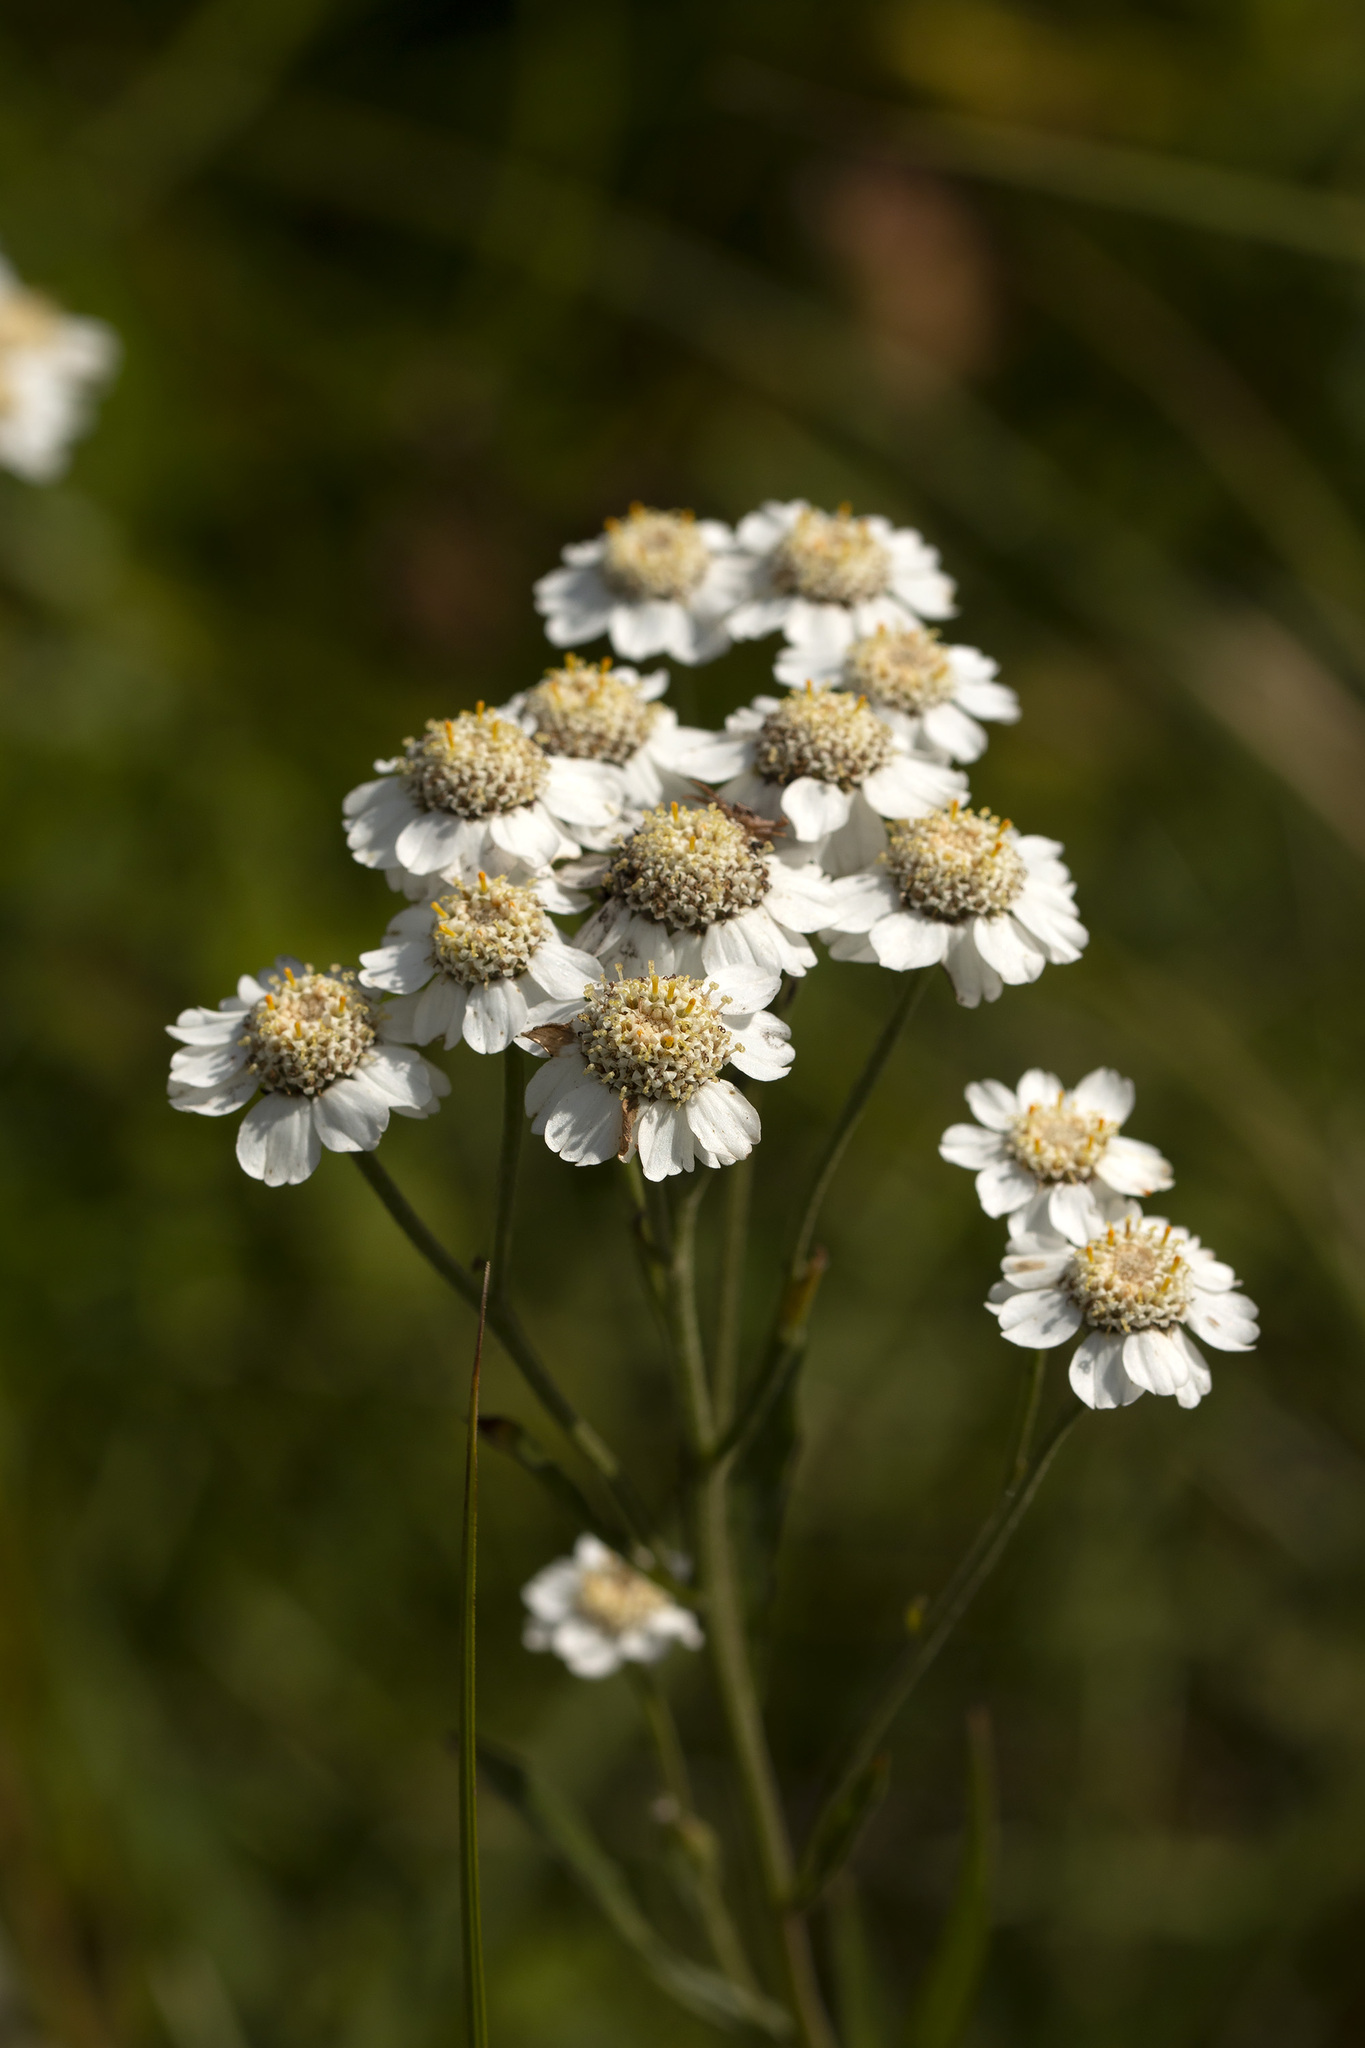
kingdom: Plantae
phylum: Tracheophyta
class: Magnoliopsida
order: Asterales
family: Asteraceae
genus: Achillea
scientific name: Achillea ptarmica
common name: Sneezeweed
